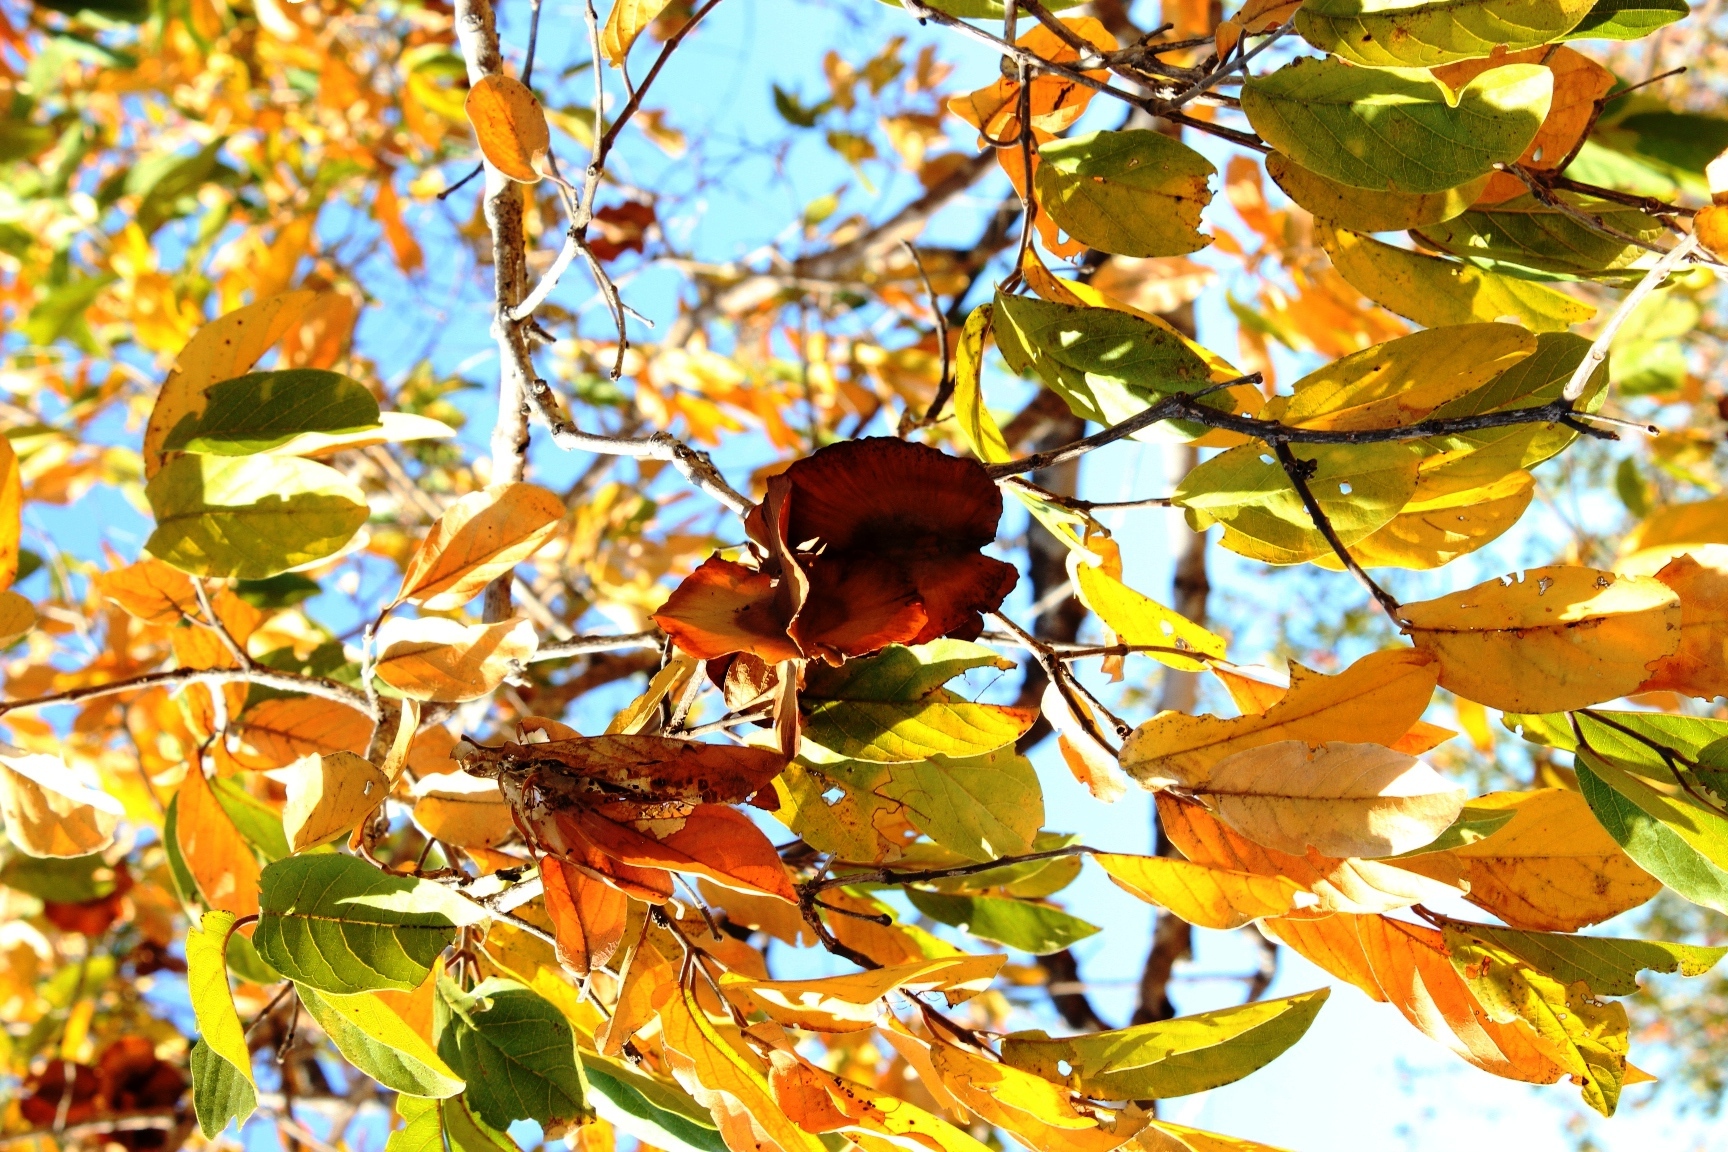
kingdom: Plantae
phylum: Tracheophyta
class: Magnoliopsida
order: Myrtales
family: Combretaceae
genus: Combretum
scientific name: Combretum zeyheri
